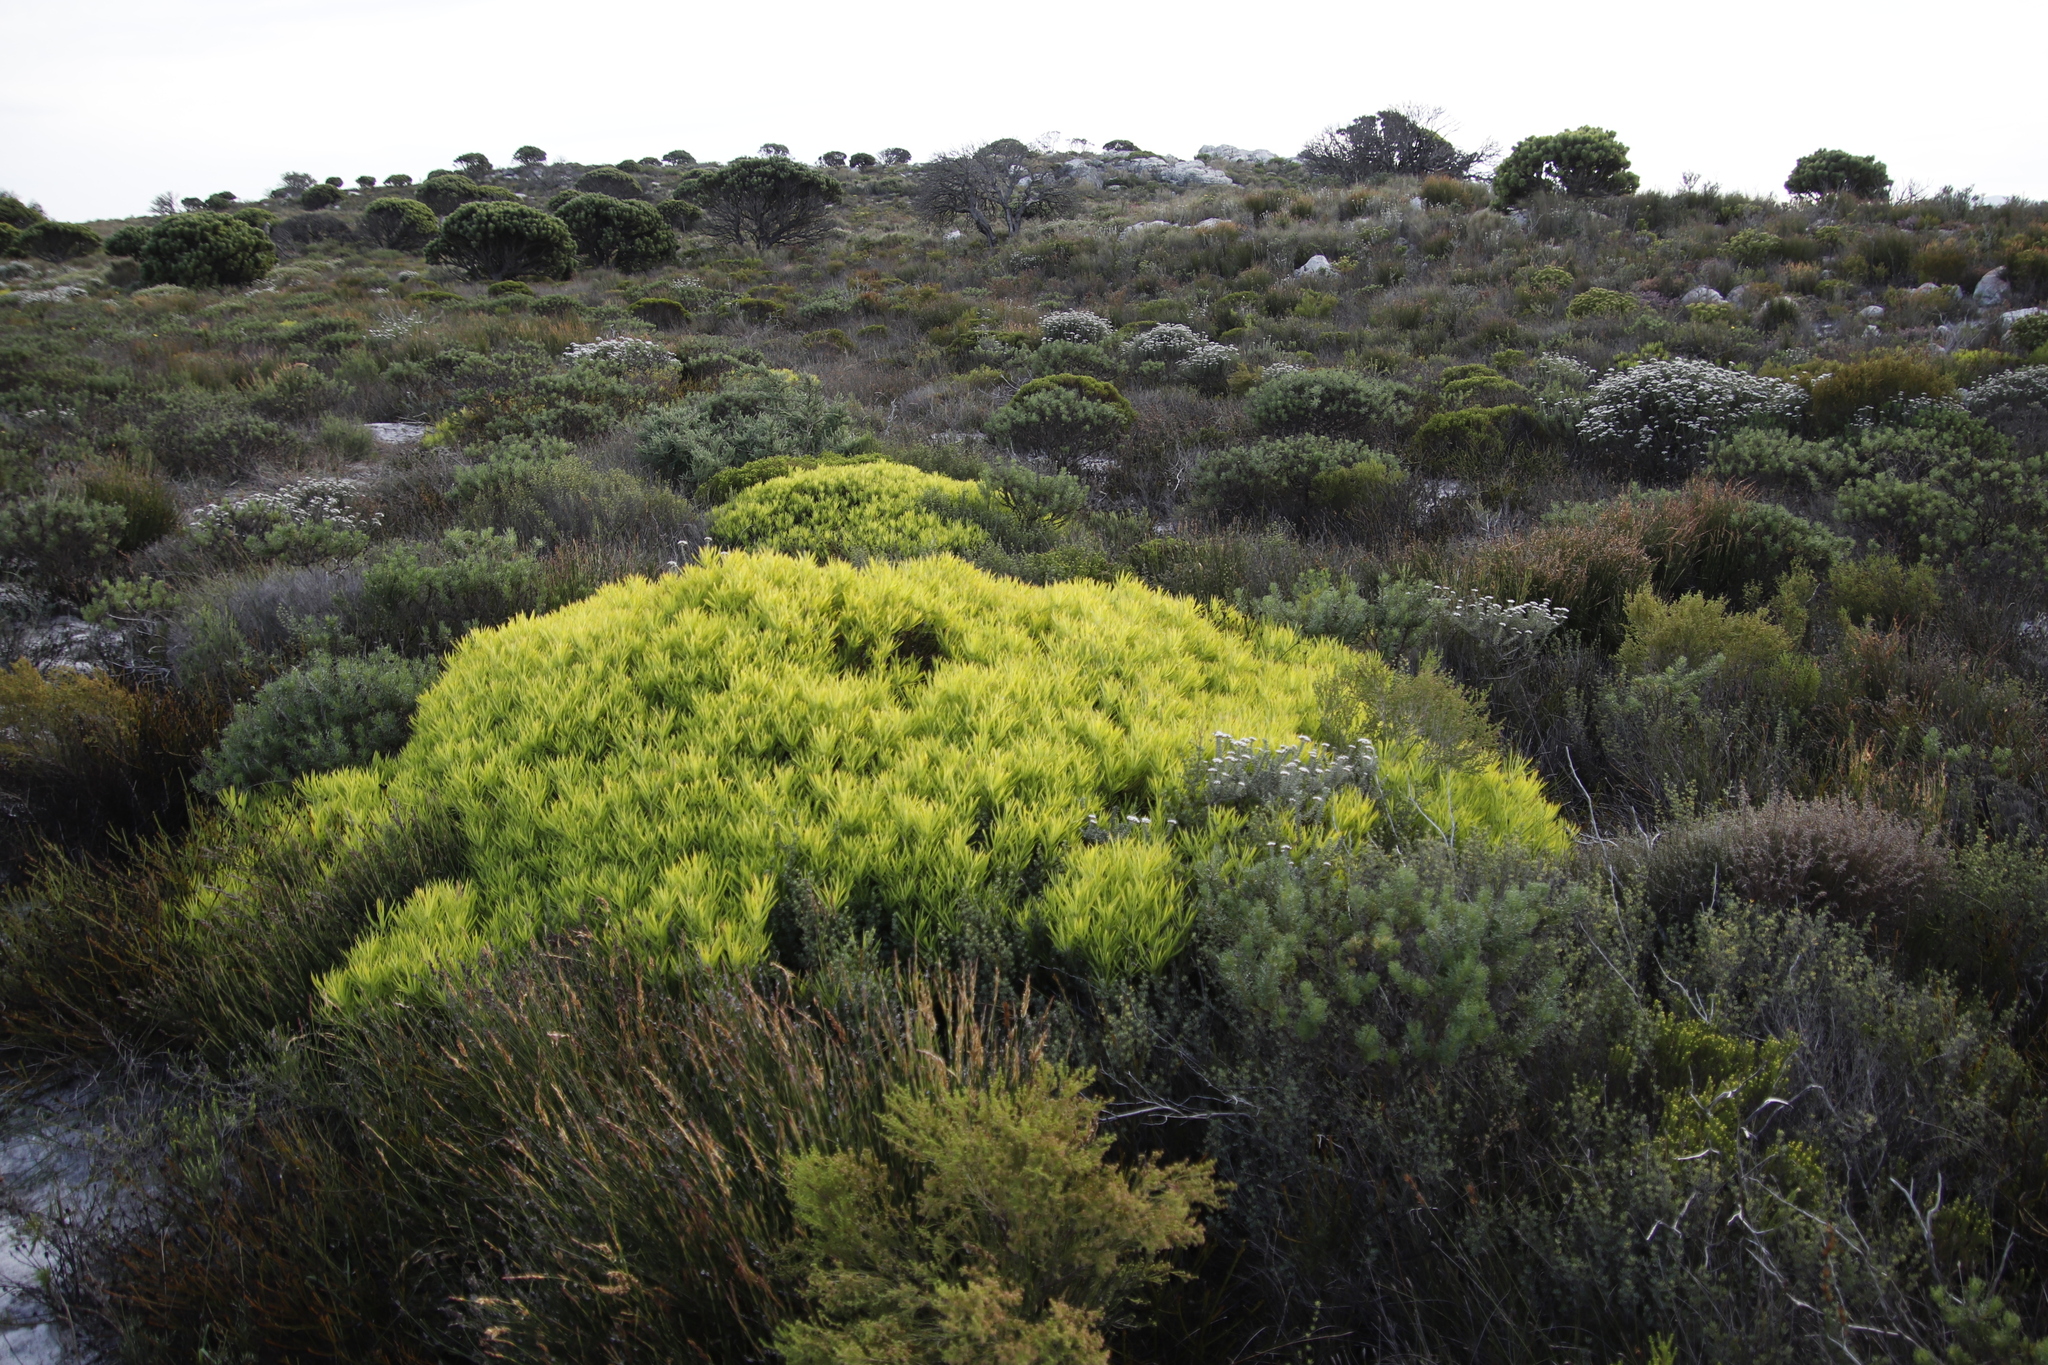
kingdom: Plantae
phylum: Tracheophyta
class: Magnoliopsida
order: Proteales
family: Proteaceae
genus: Leucadendron
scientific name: Leucadendron salignum
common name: Common sunshine conebush
